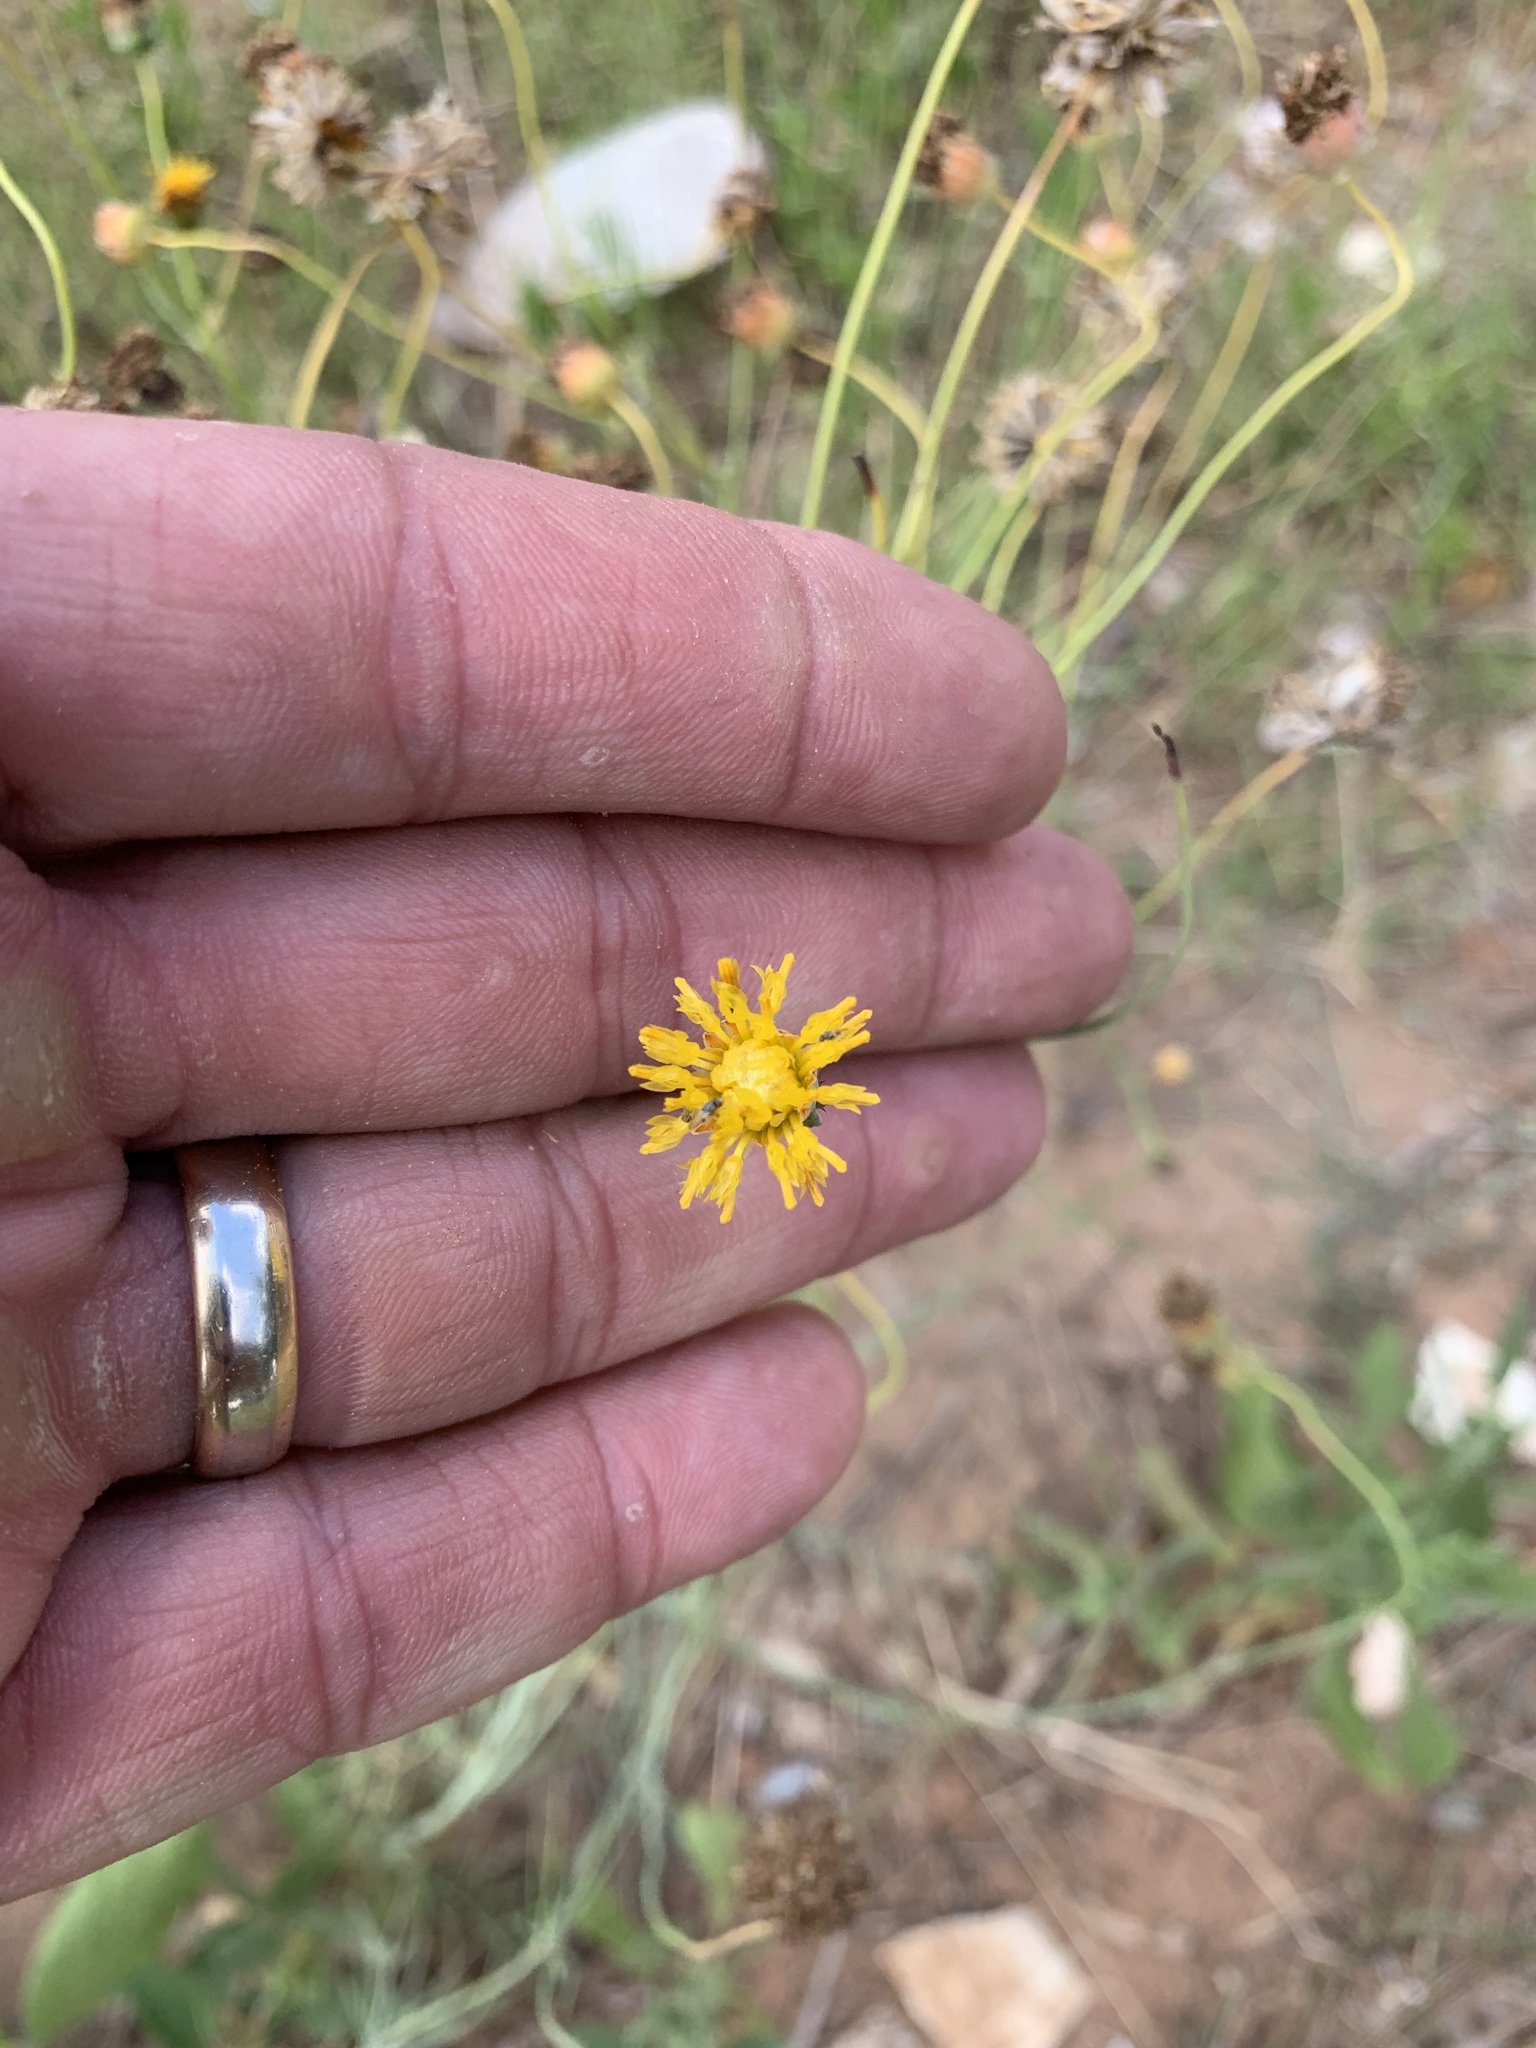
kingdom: Plantae
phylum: Tracheophyta
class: Magnoliopsida
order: Asterales
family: Asteraceae
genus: Thelesperma
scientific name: Thelesperma megapotamicum
